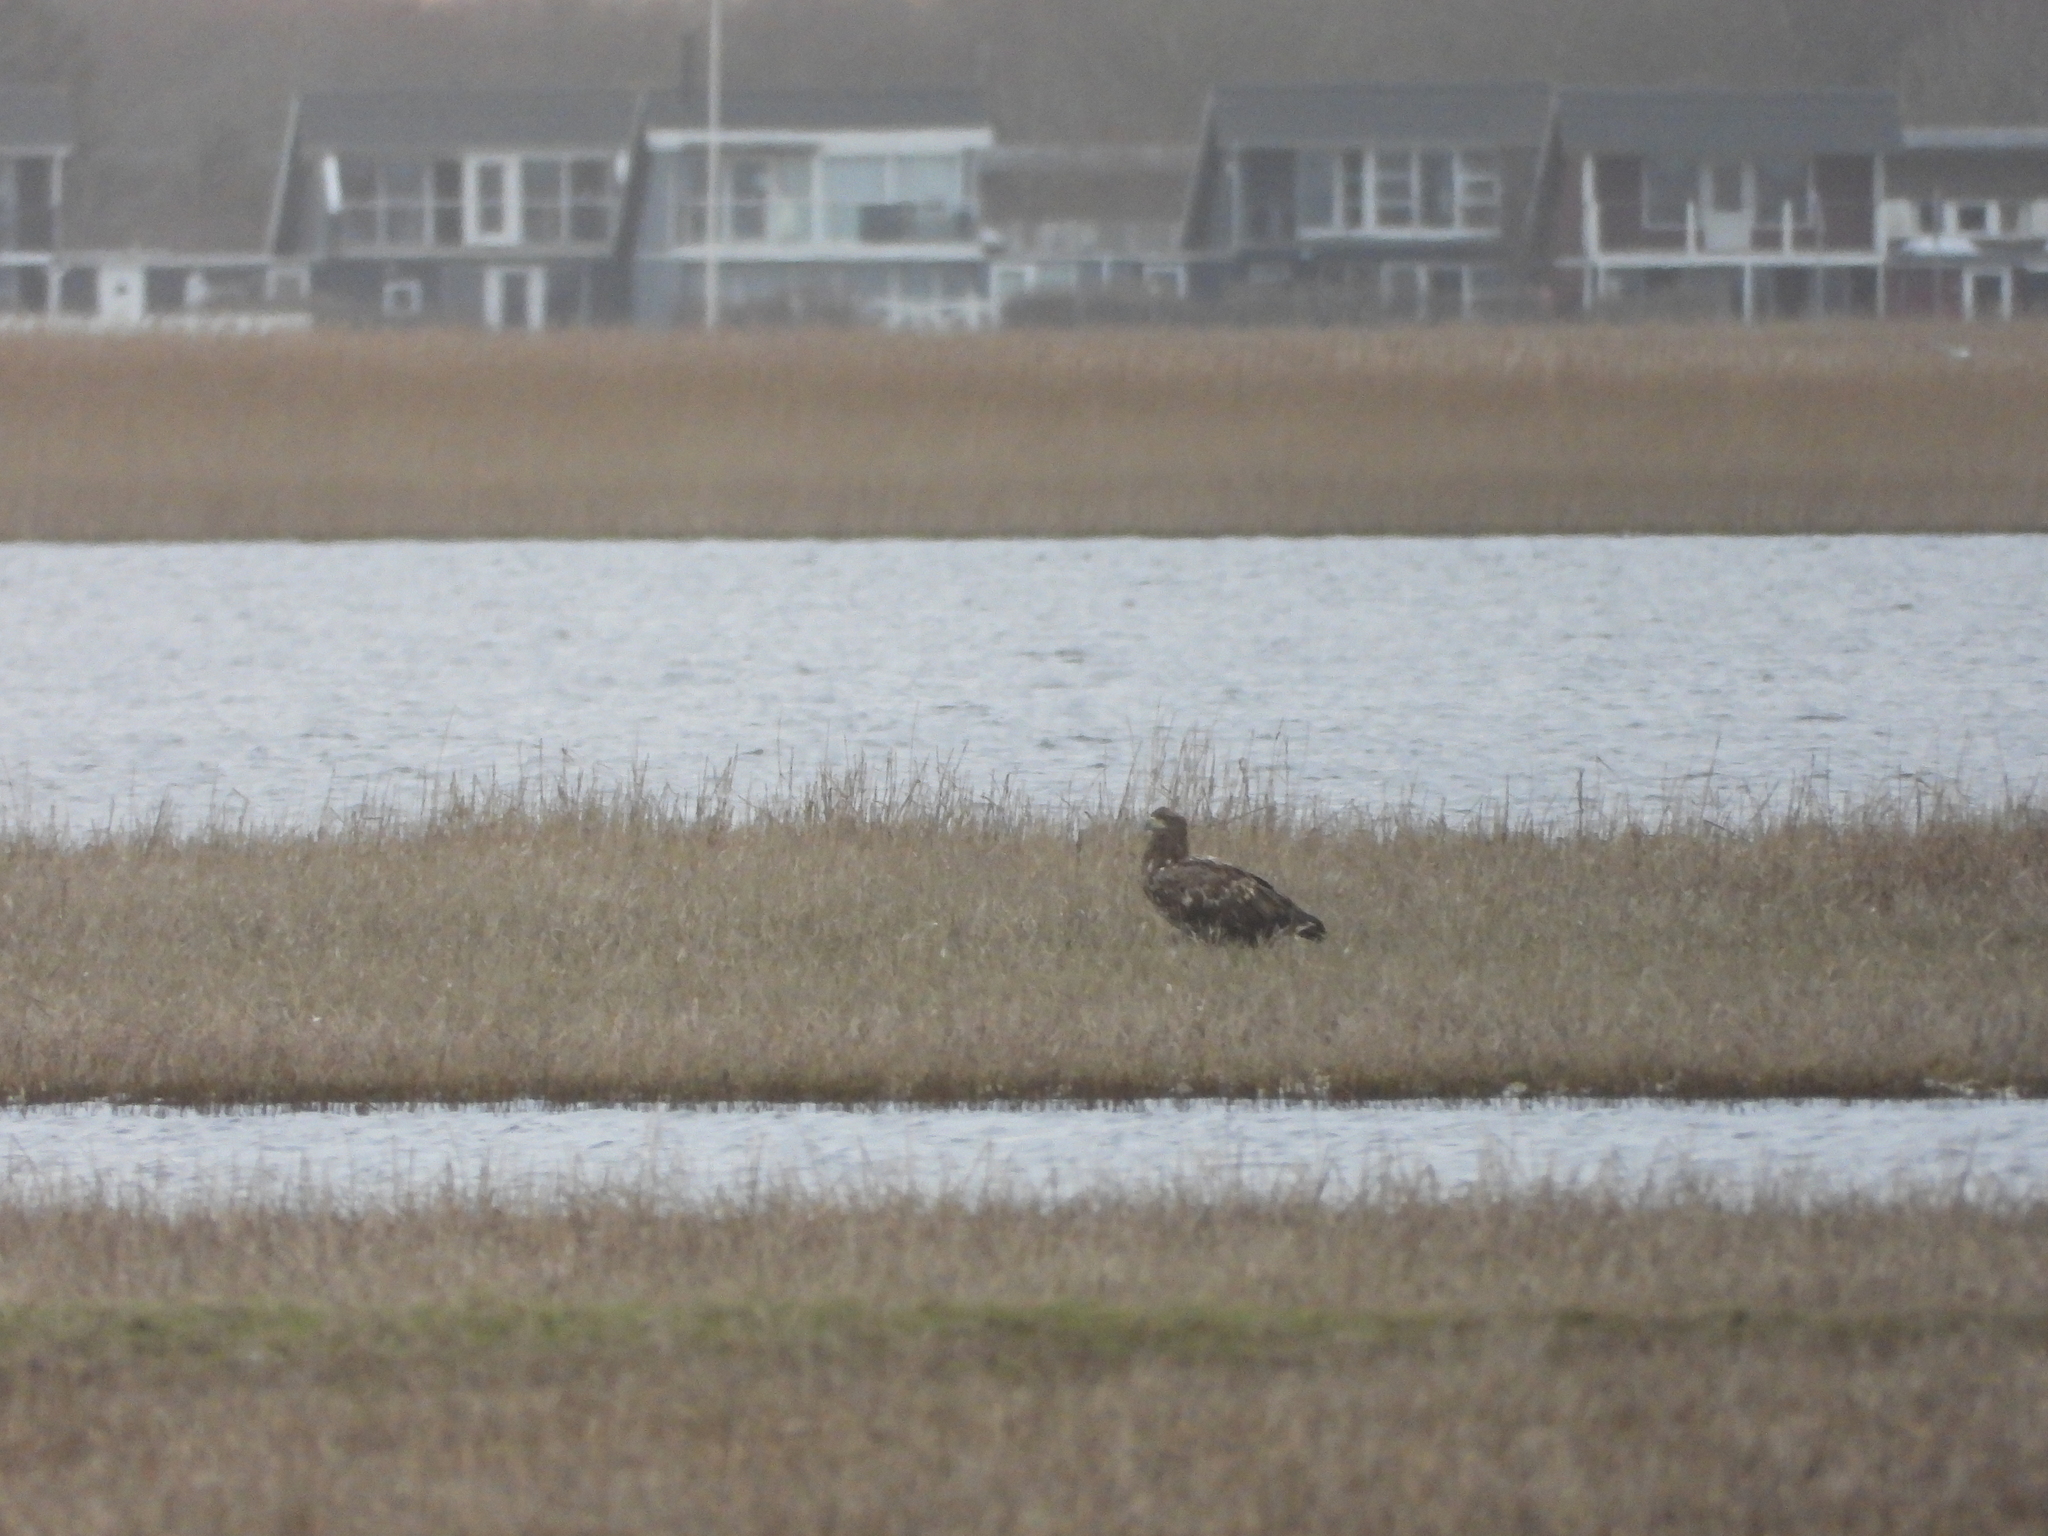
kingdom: Animalia
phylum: Chordata
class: Aves
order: Accipitriformes
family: Accipitridae
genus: Haliaeetus
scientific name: Haliaeetus albicilla
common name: White-tailed eagle
